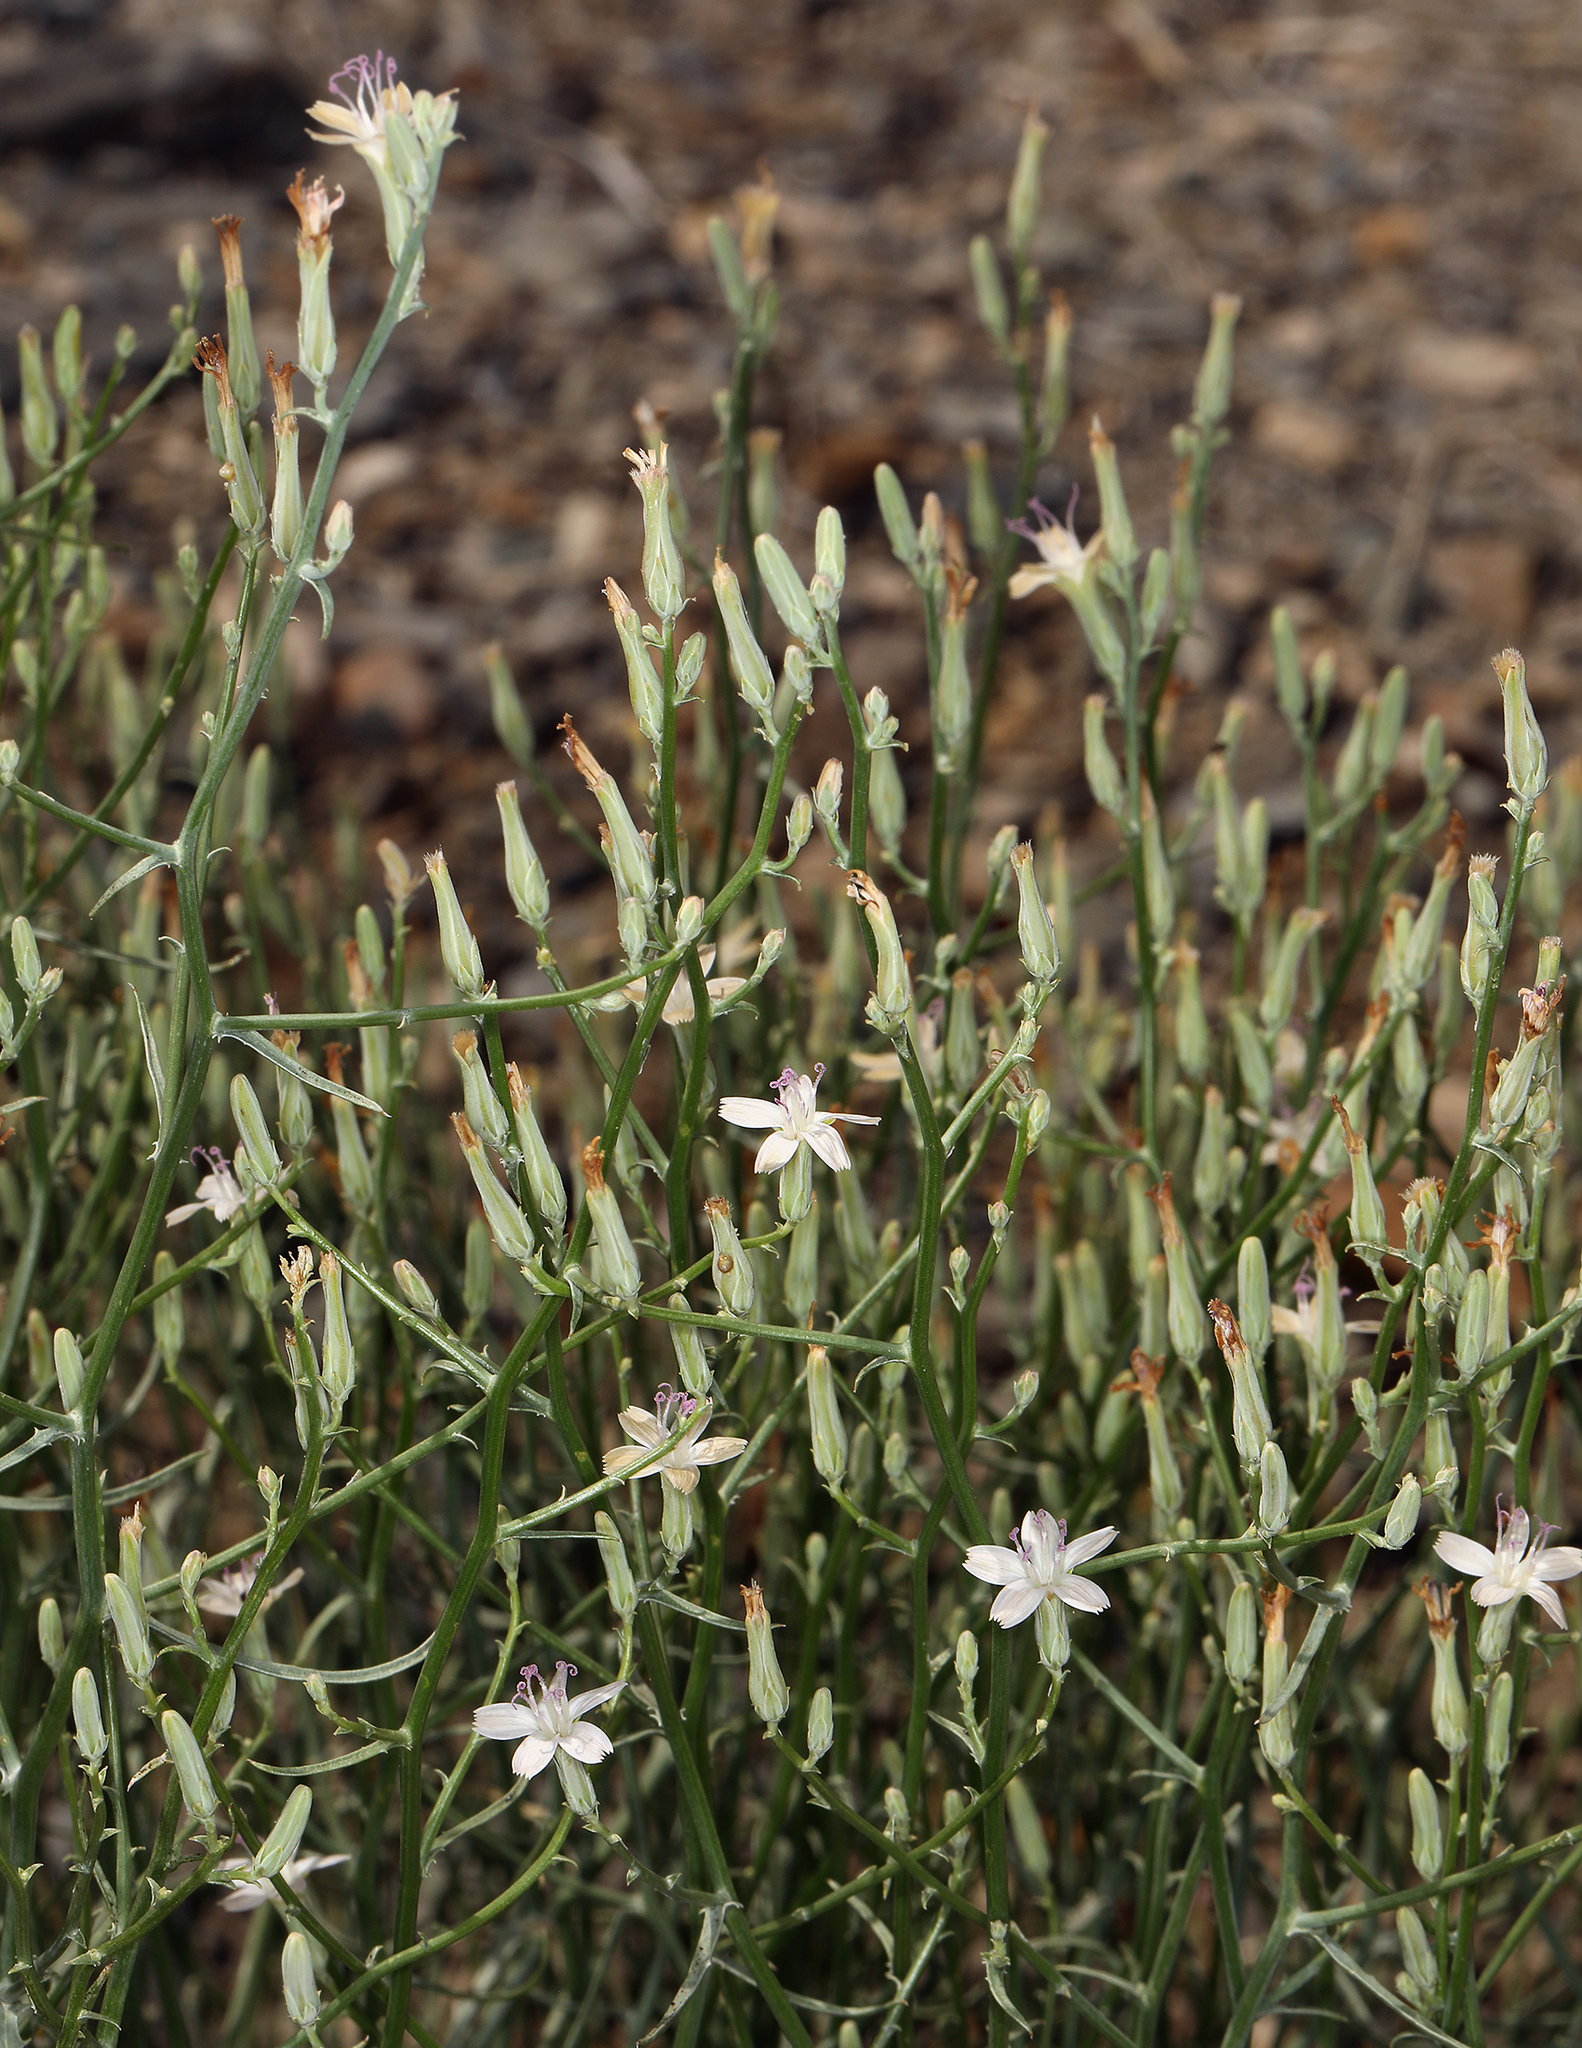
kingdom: Plantae
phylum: Tracheophyta
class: Magnoliopsida
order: Asterales
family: Asteraceae
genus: Stephanomeria
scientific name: Stephanomeria pauciflora
